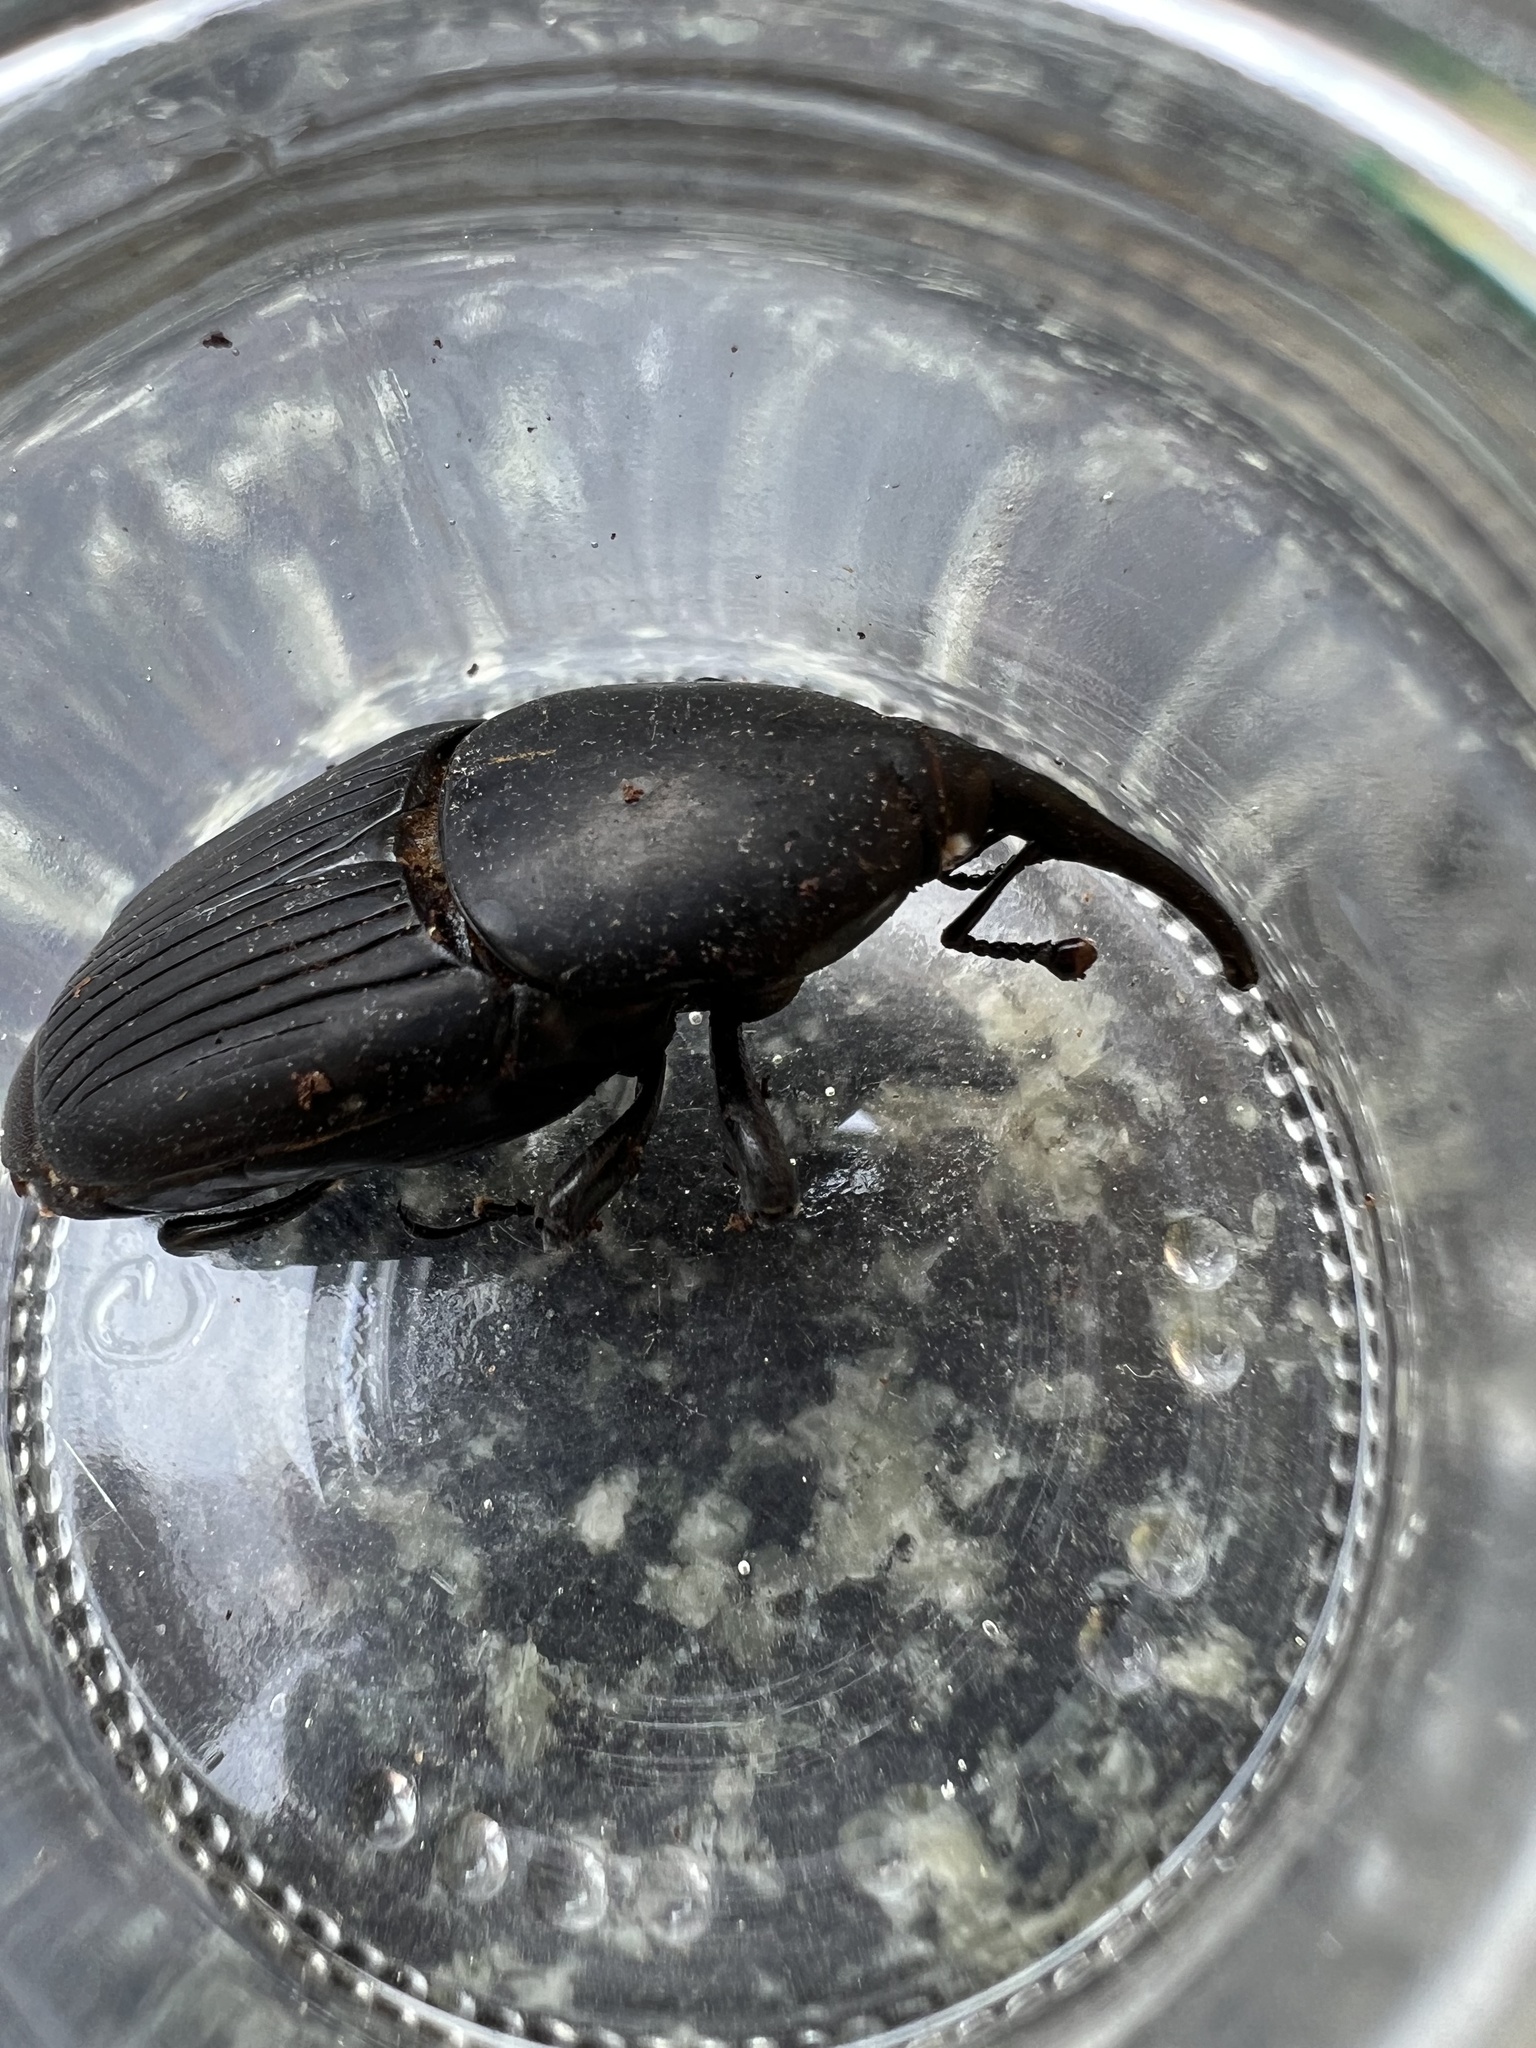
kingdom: Animalia
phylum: Arthropoda
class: Insecta
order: Coleoptera
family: Dryophthoridae
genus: Rhynchophorus
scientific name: Rhynchophorus ferrugineus
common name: Red palm weevil
